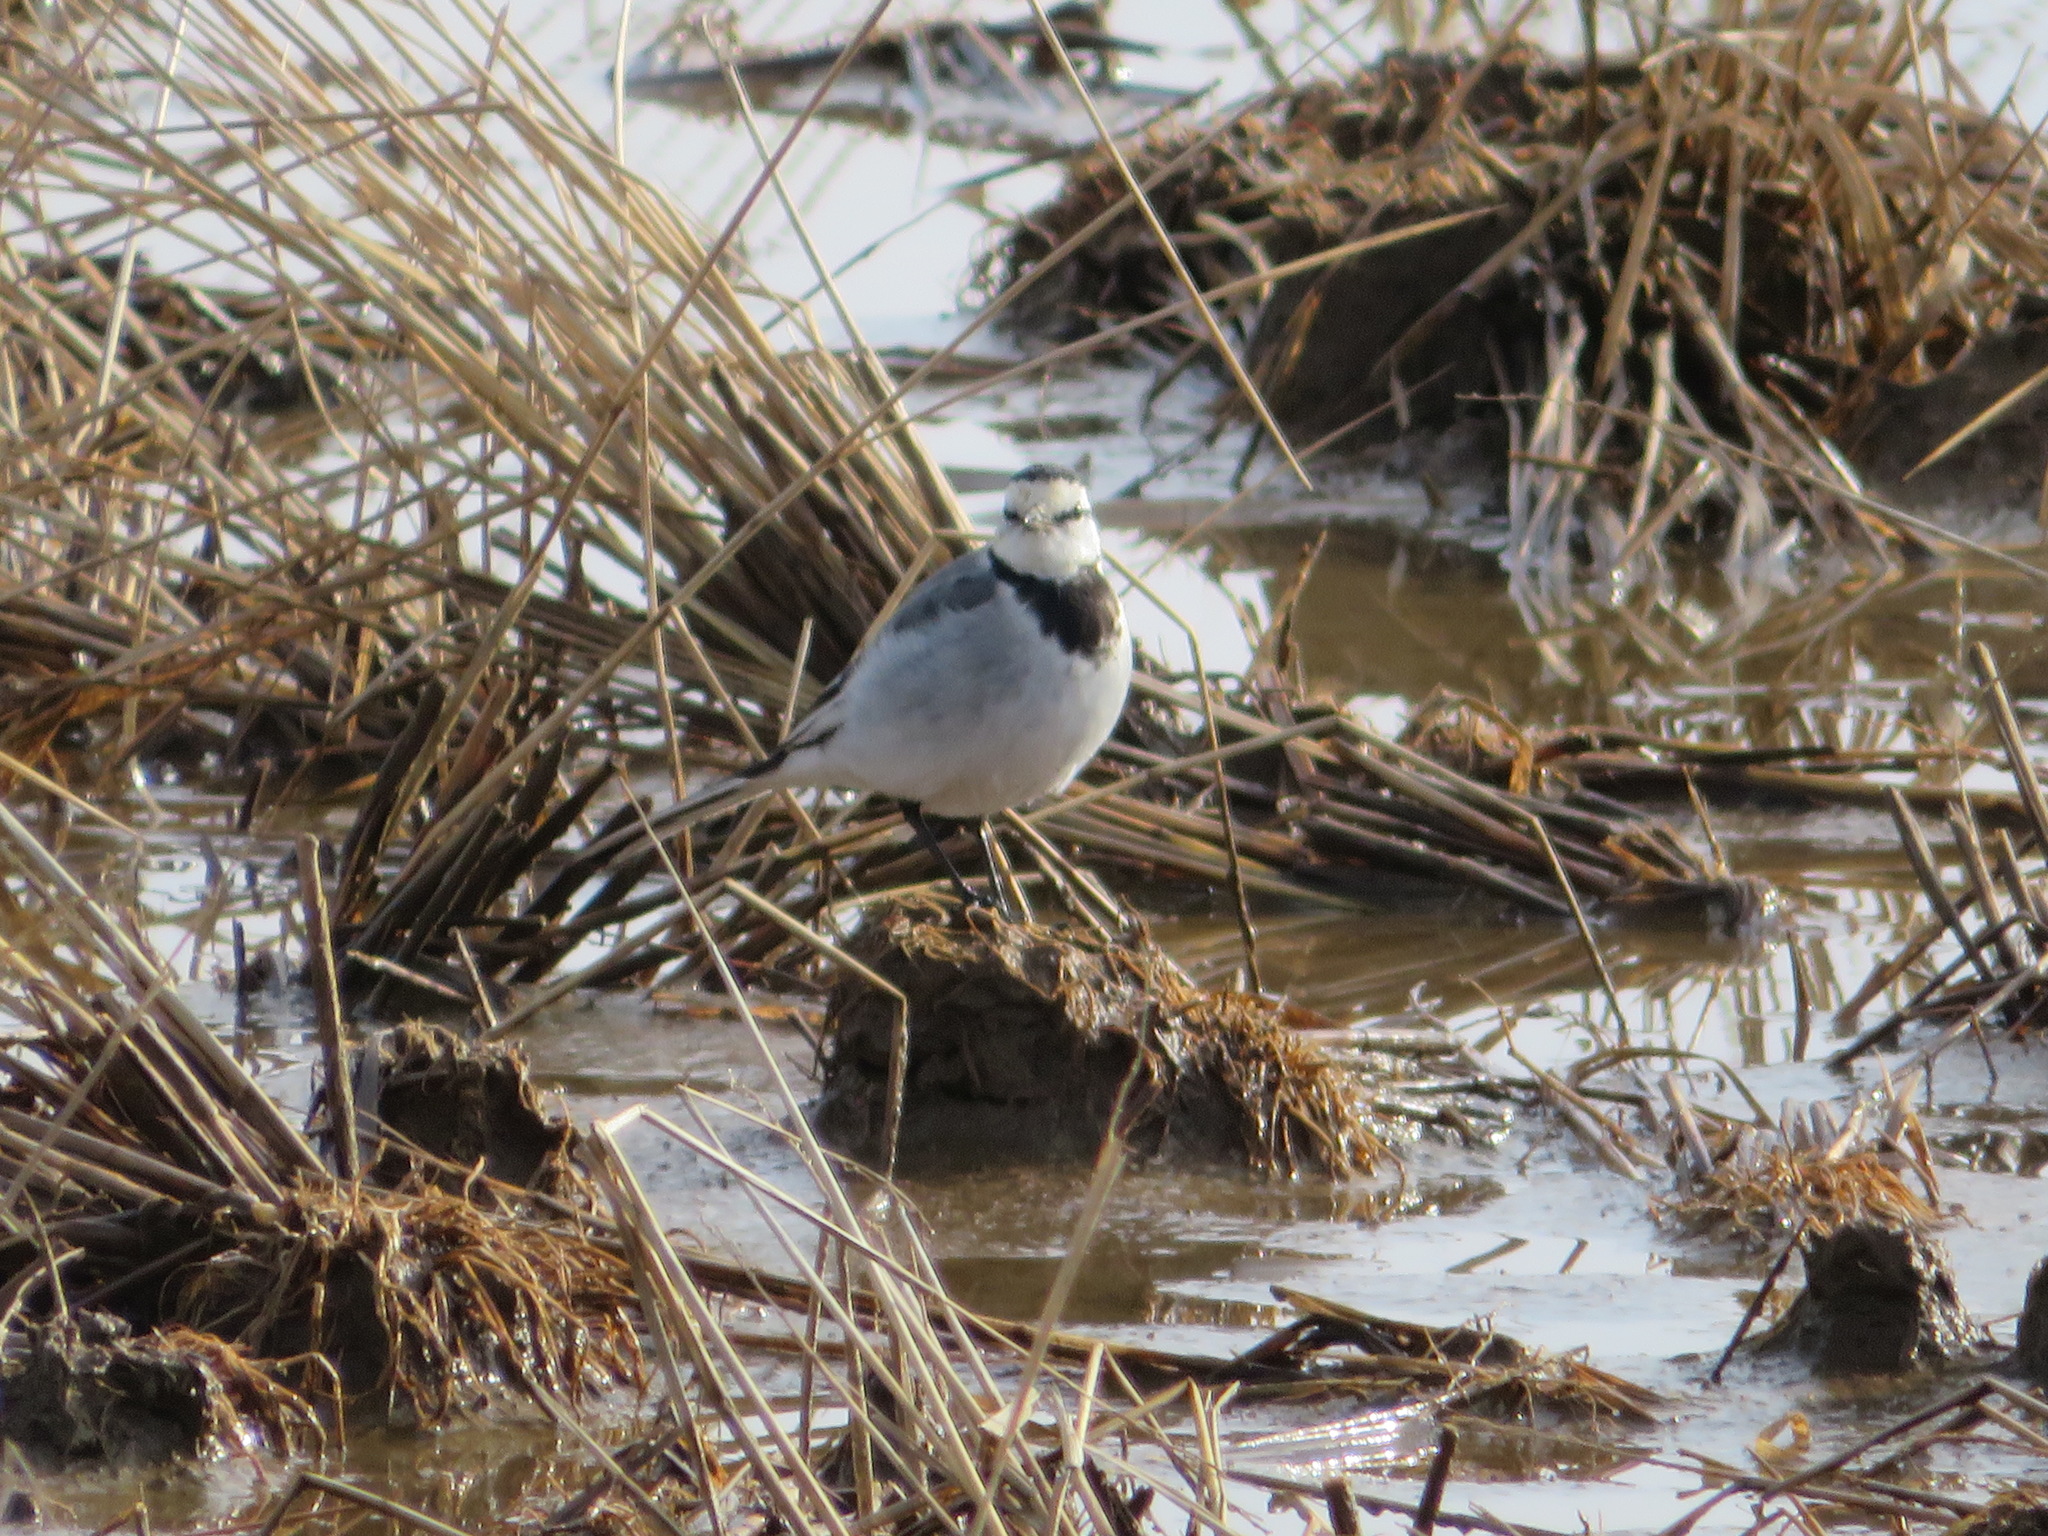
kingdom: Animalia
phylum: Chordata
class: Aves
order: Passeriformes
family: Motacillidae
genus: Motacilla
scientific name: Motacilla alba
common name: White wagtail
